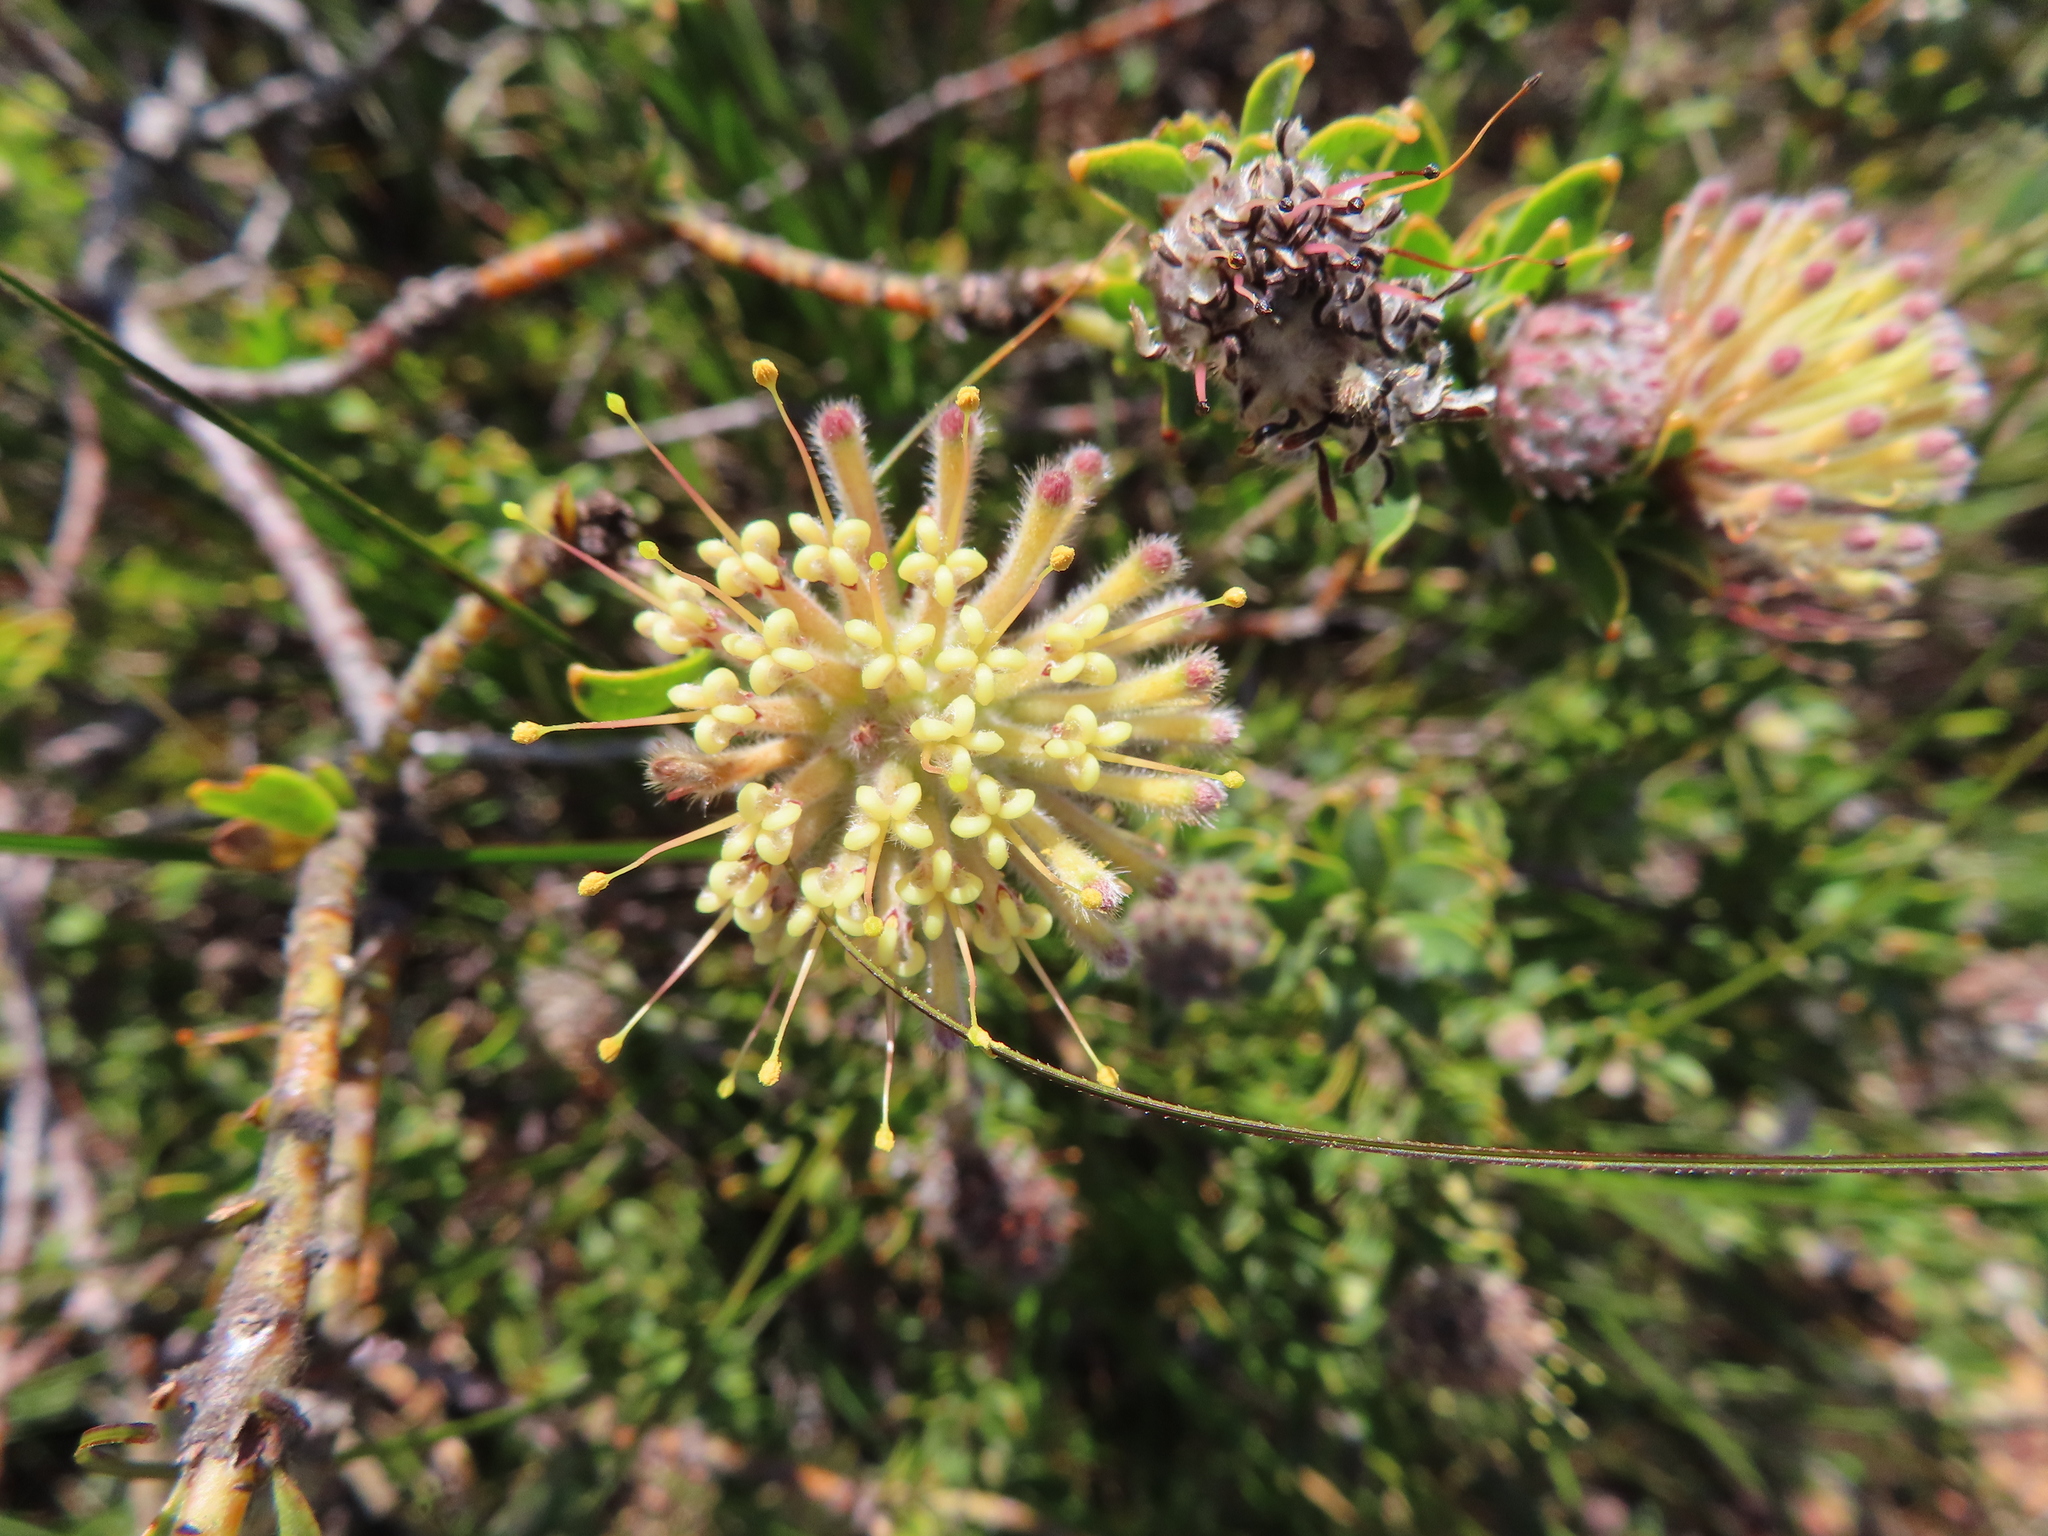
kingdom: Plantae
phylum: Tracheophyta
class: Magnoliopsida
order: Proteales
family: Proteaceae
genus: Leucospermum
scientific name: Leucospermum heterophyllum
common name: Trident pincushion
